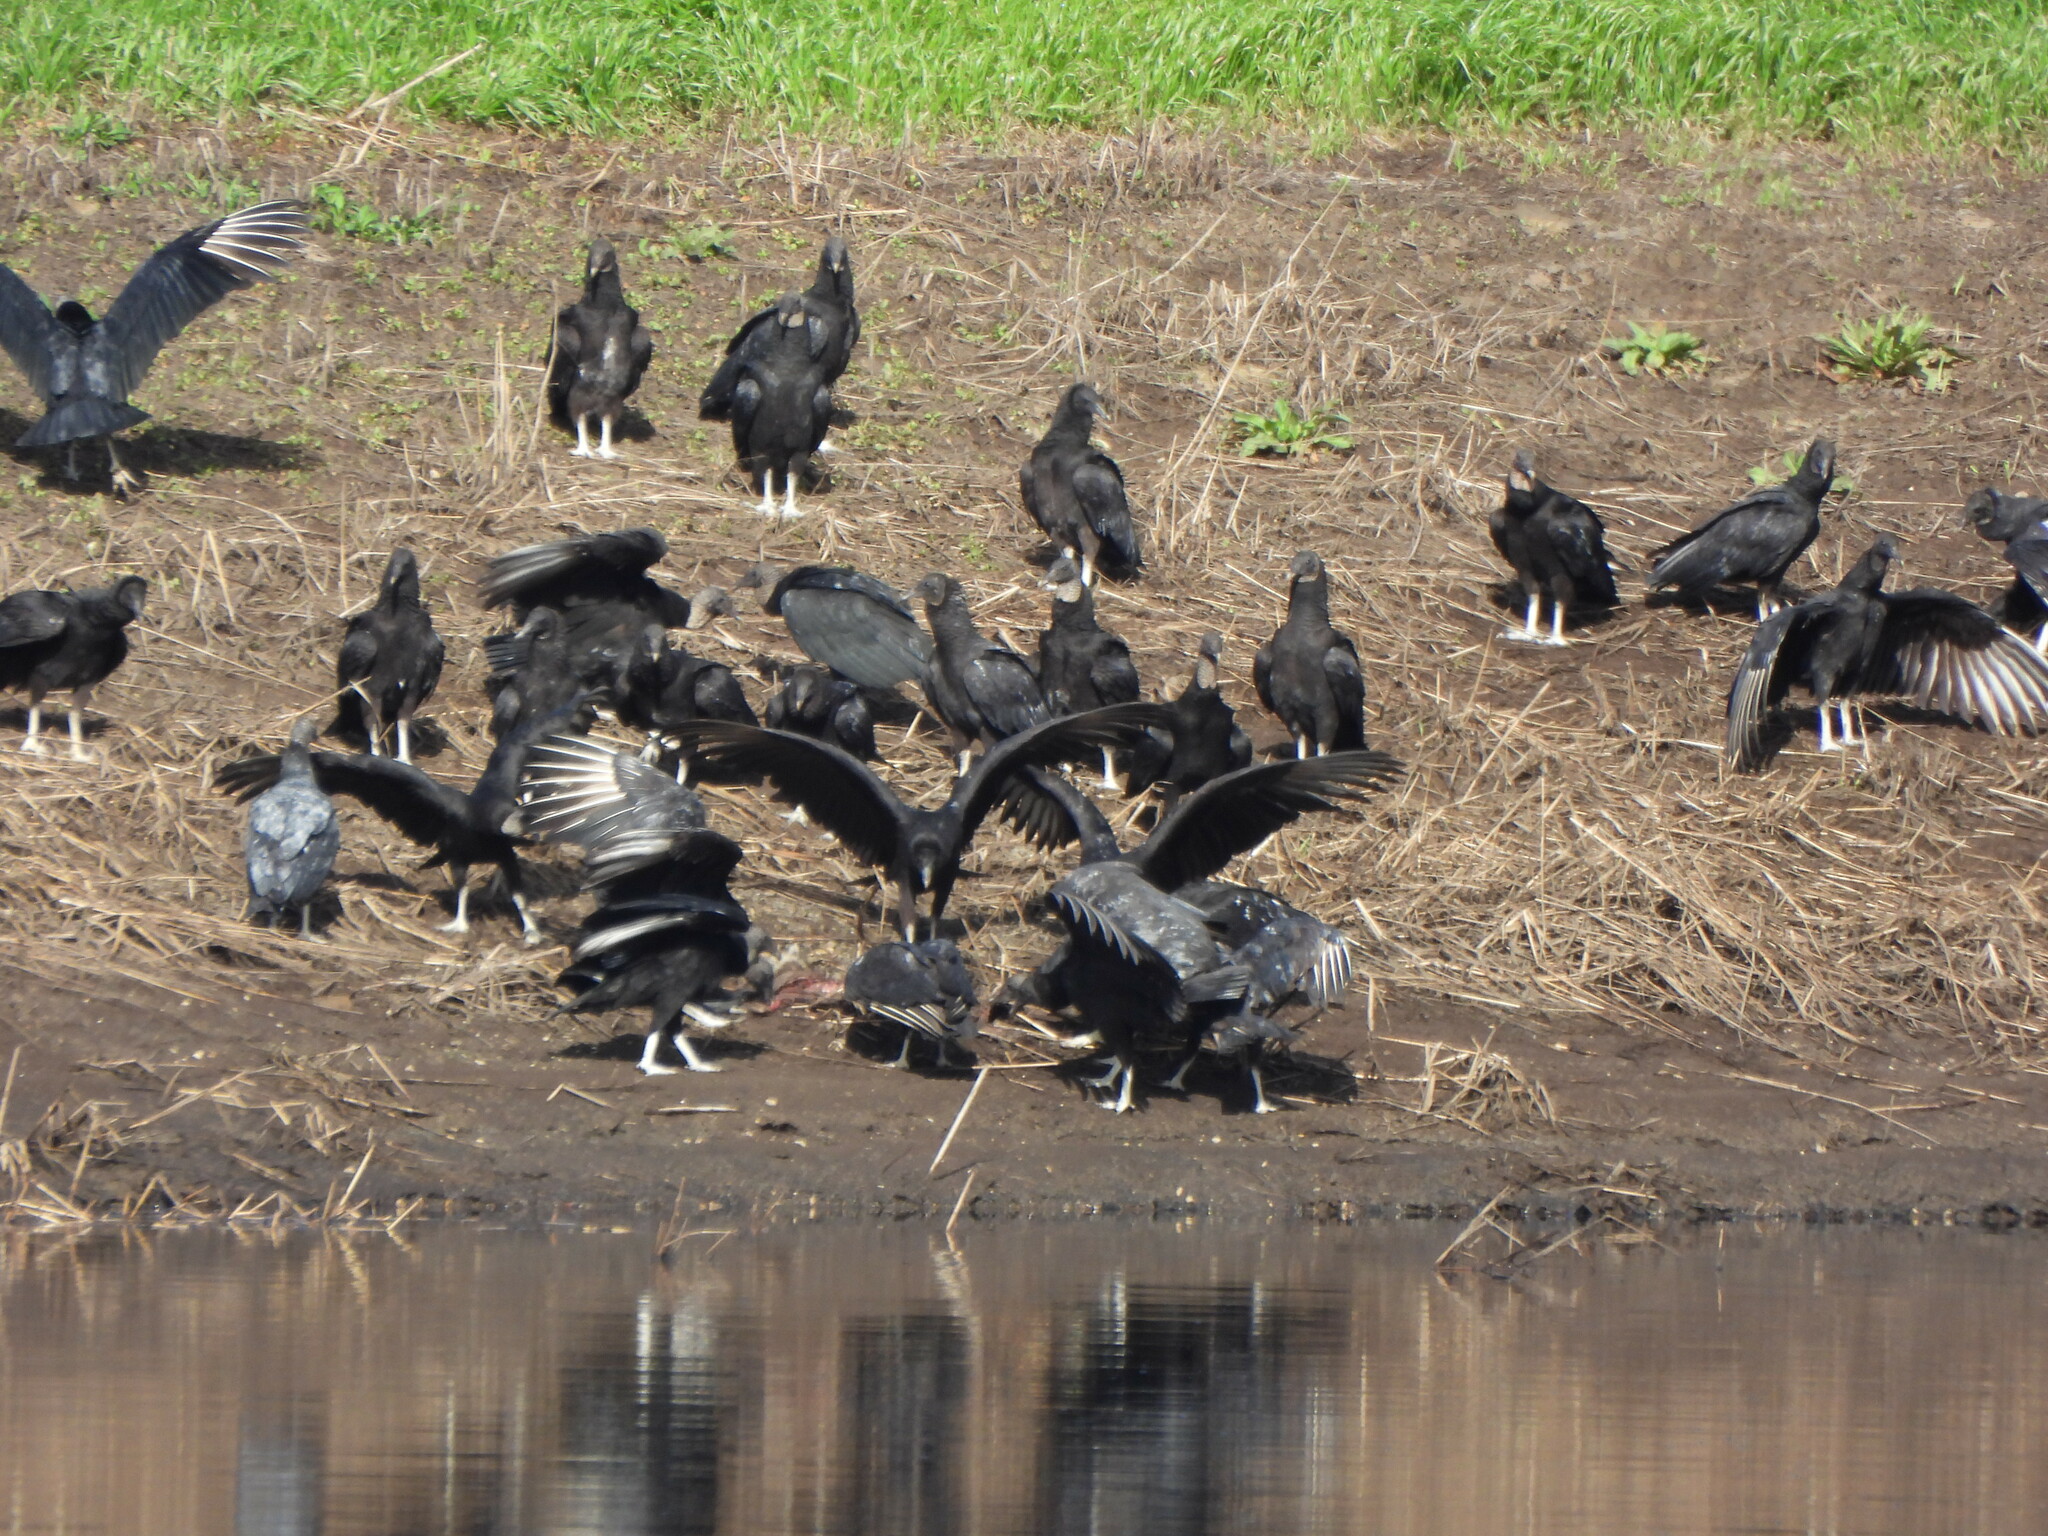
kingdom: Animalia
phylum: Chordata
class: Aves
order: Accipitriformes
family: Cathartidae
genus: Coragyps
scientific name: Coragyps atratus
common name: Black vulture
